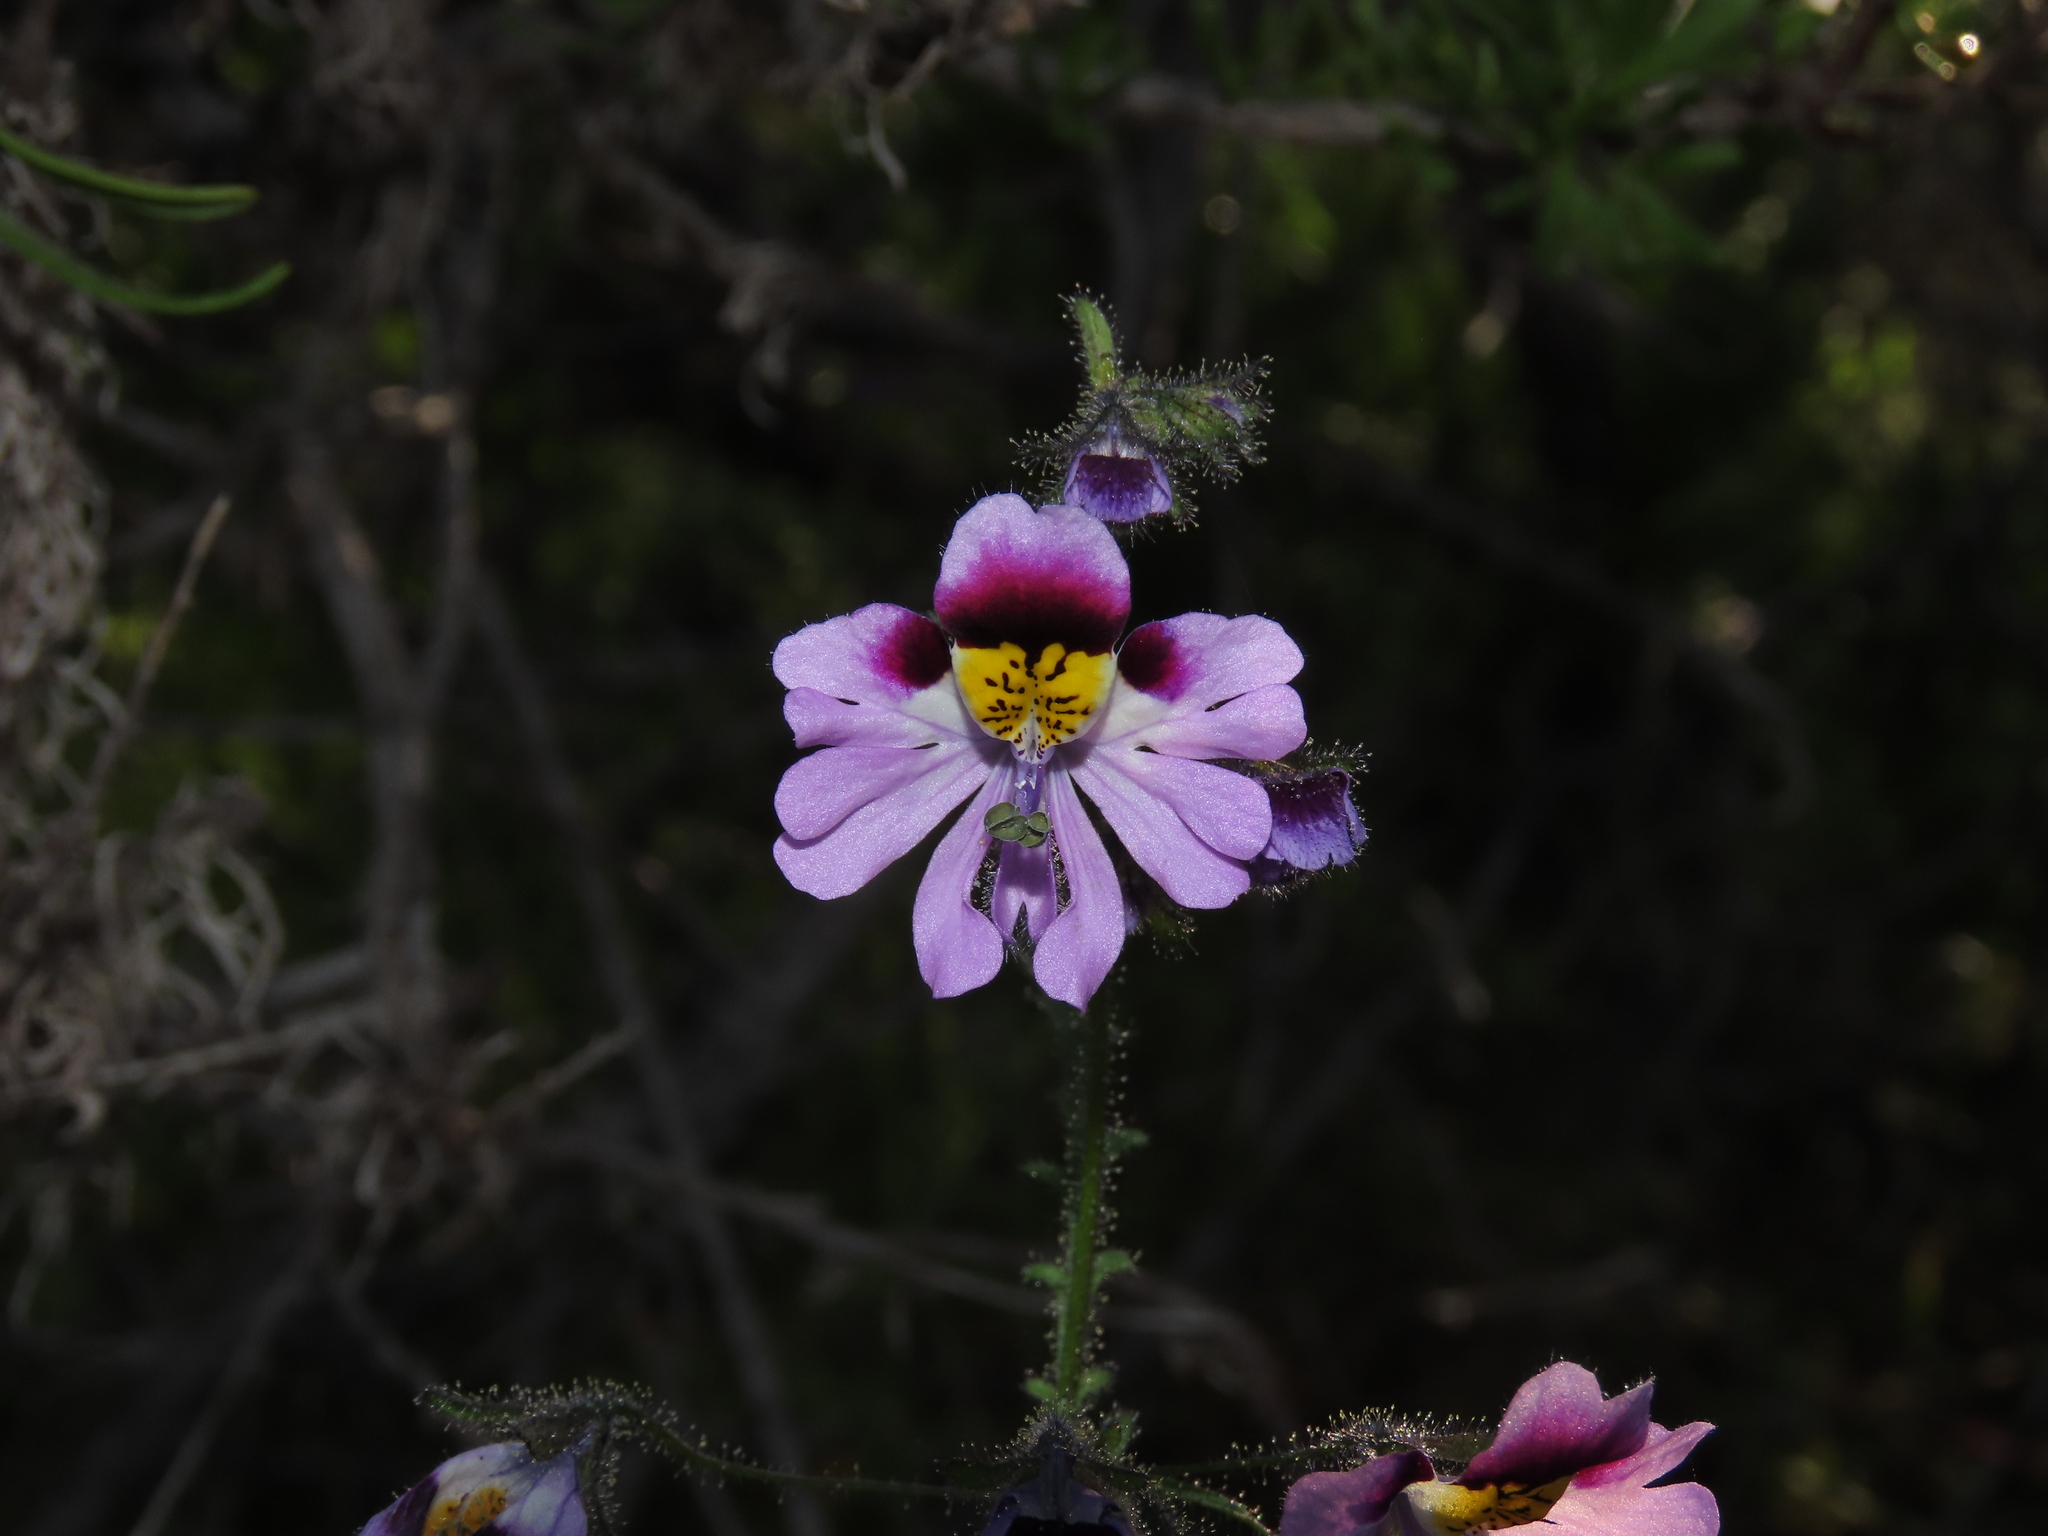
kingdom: Plantae
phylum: Tracheophyta
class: Magnoliopsida
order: Solanales
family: Solanaceae
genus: Schizanthus
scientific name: Schizanthus carlomunozii
